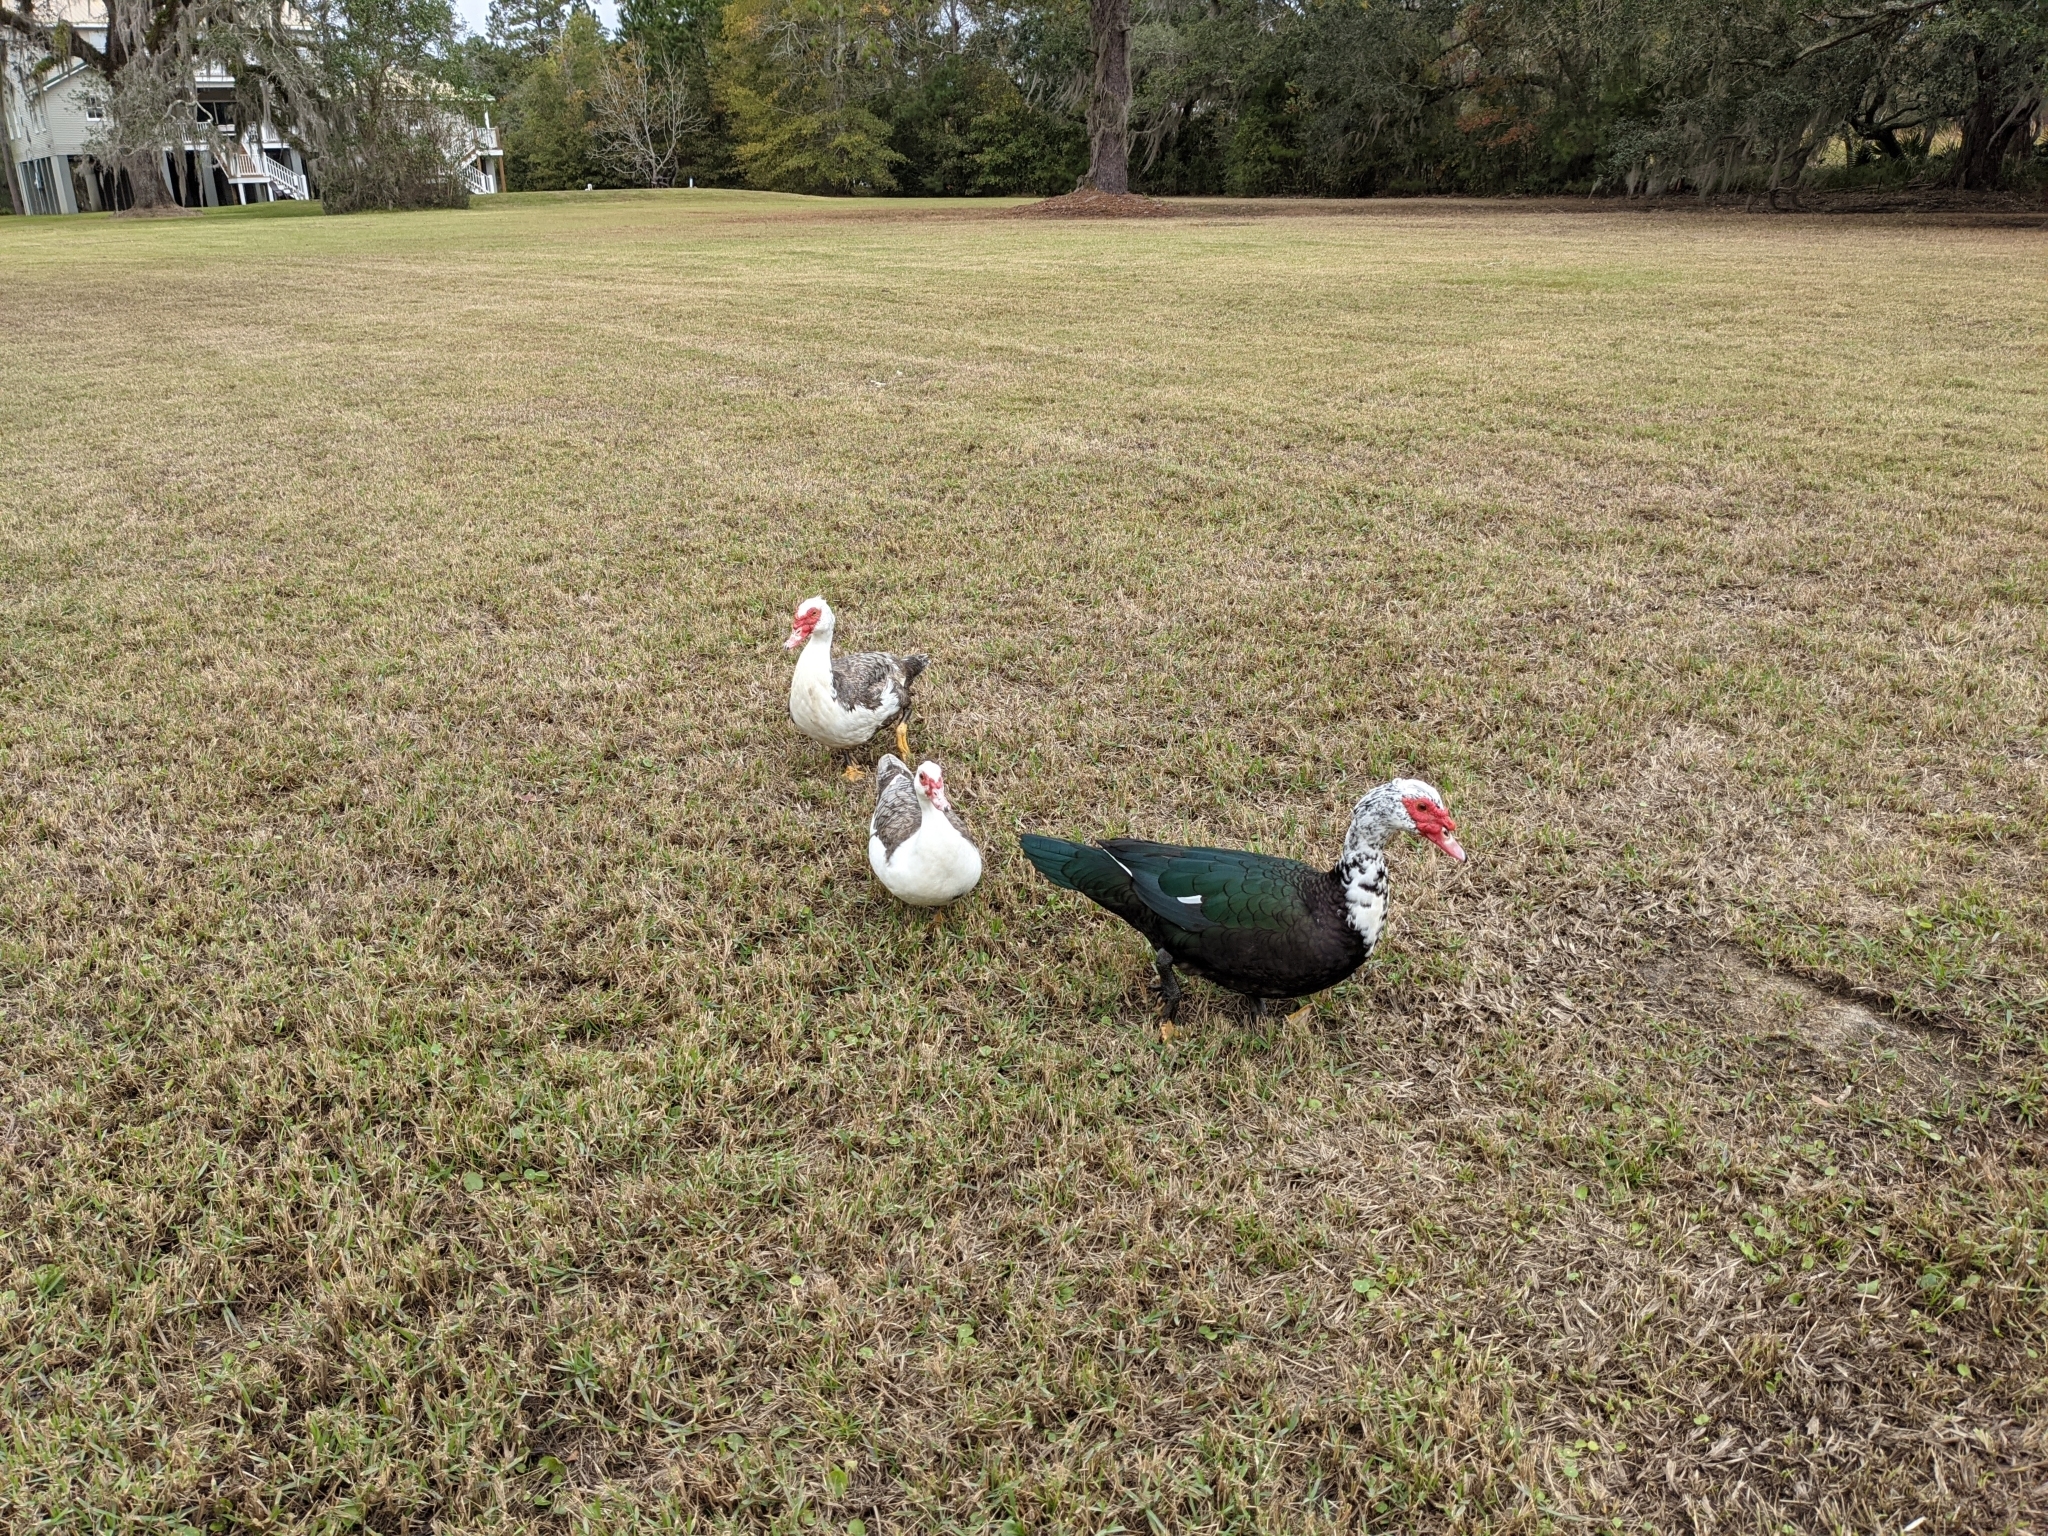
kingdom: Animalia
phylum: Chordata
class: Aves
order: Anseriformes
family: Anatidae
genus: Cairina
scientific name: Cairina moschata
